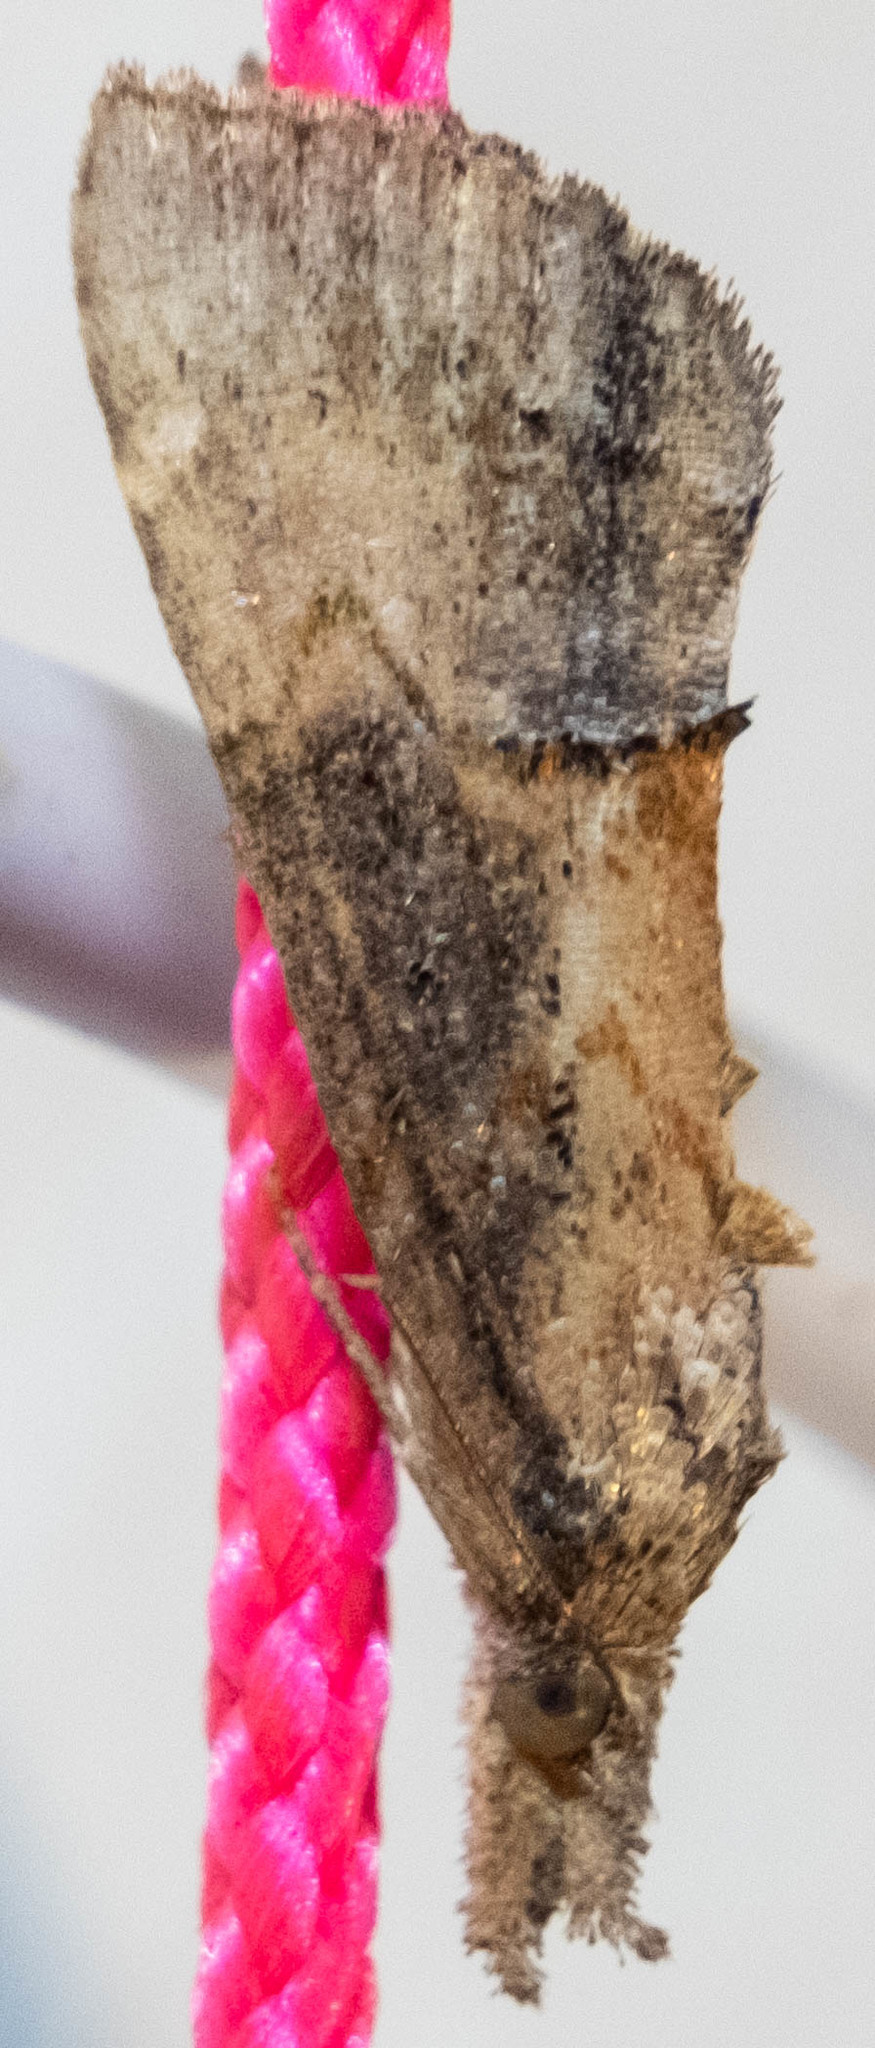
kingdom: Animalia
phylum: Arthropoda
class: Insecta
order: Lepidoptera
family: Erebidae
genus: Hypena
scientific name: Hypena scabra
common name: Green cloverworm
